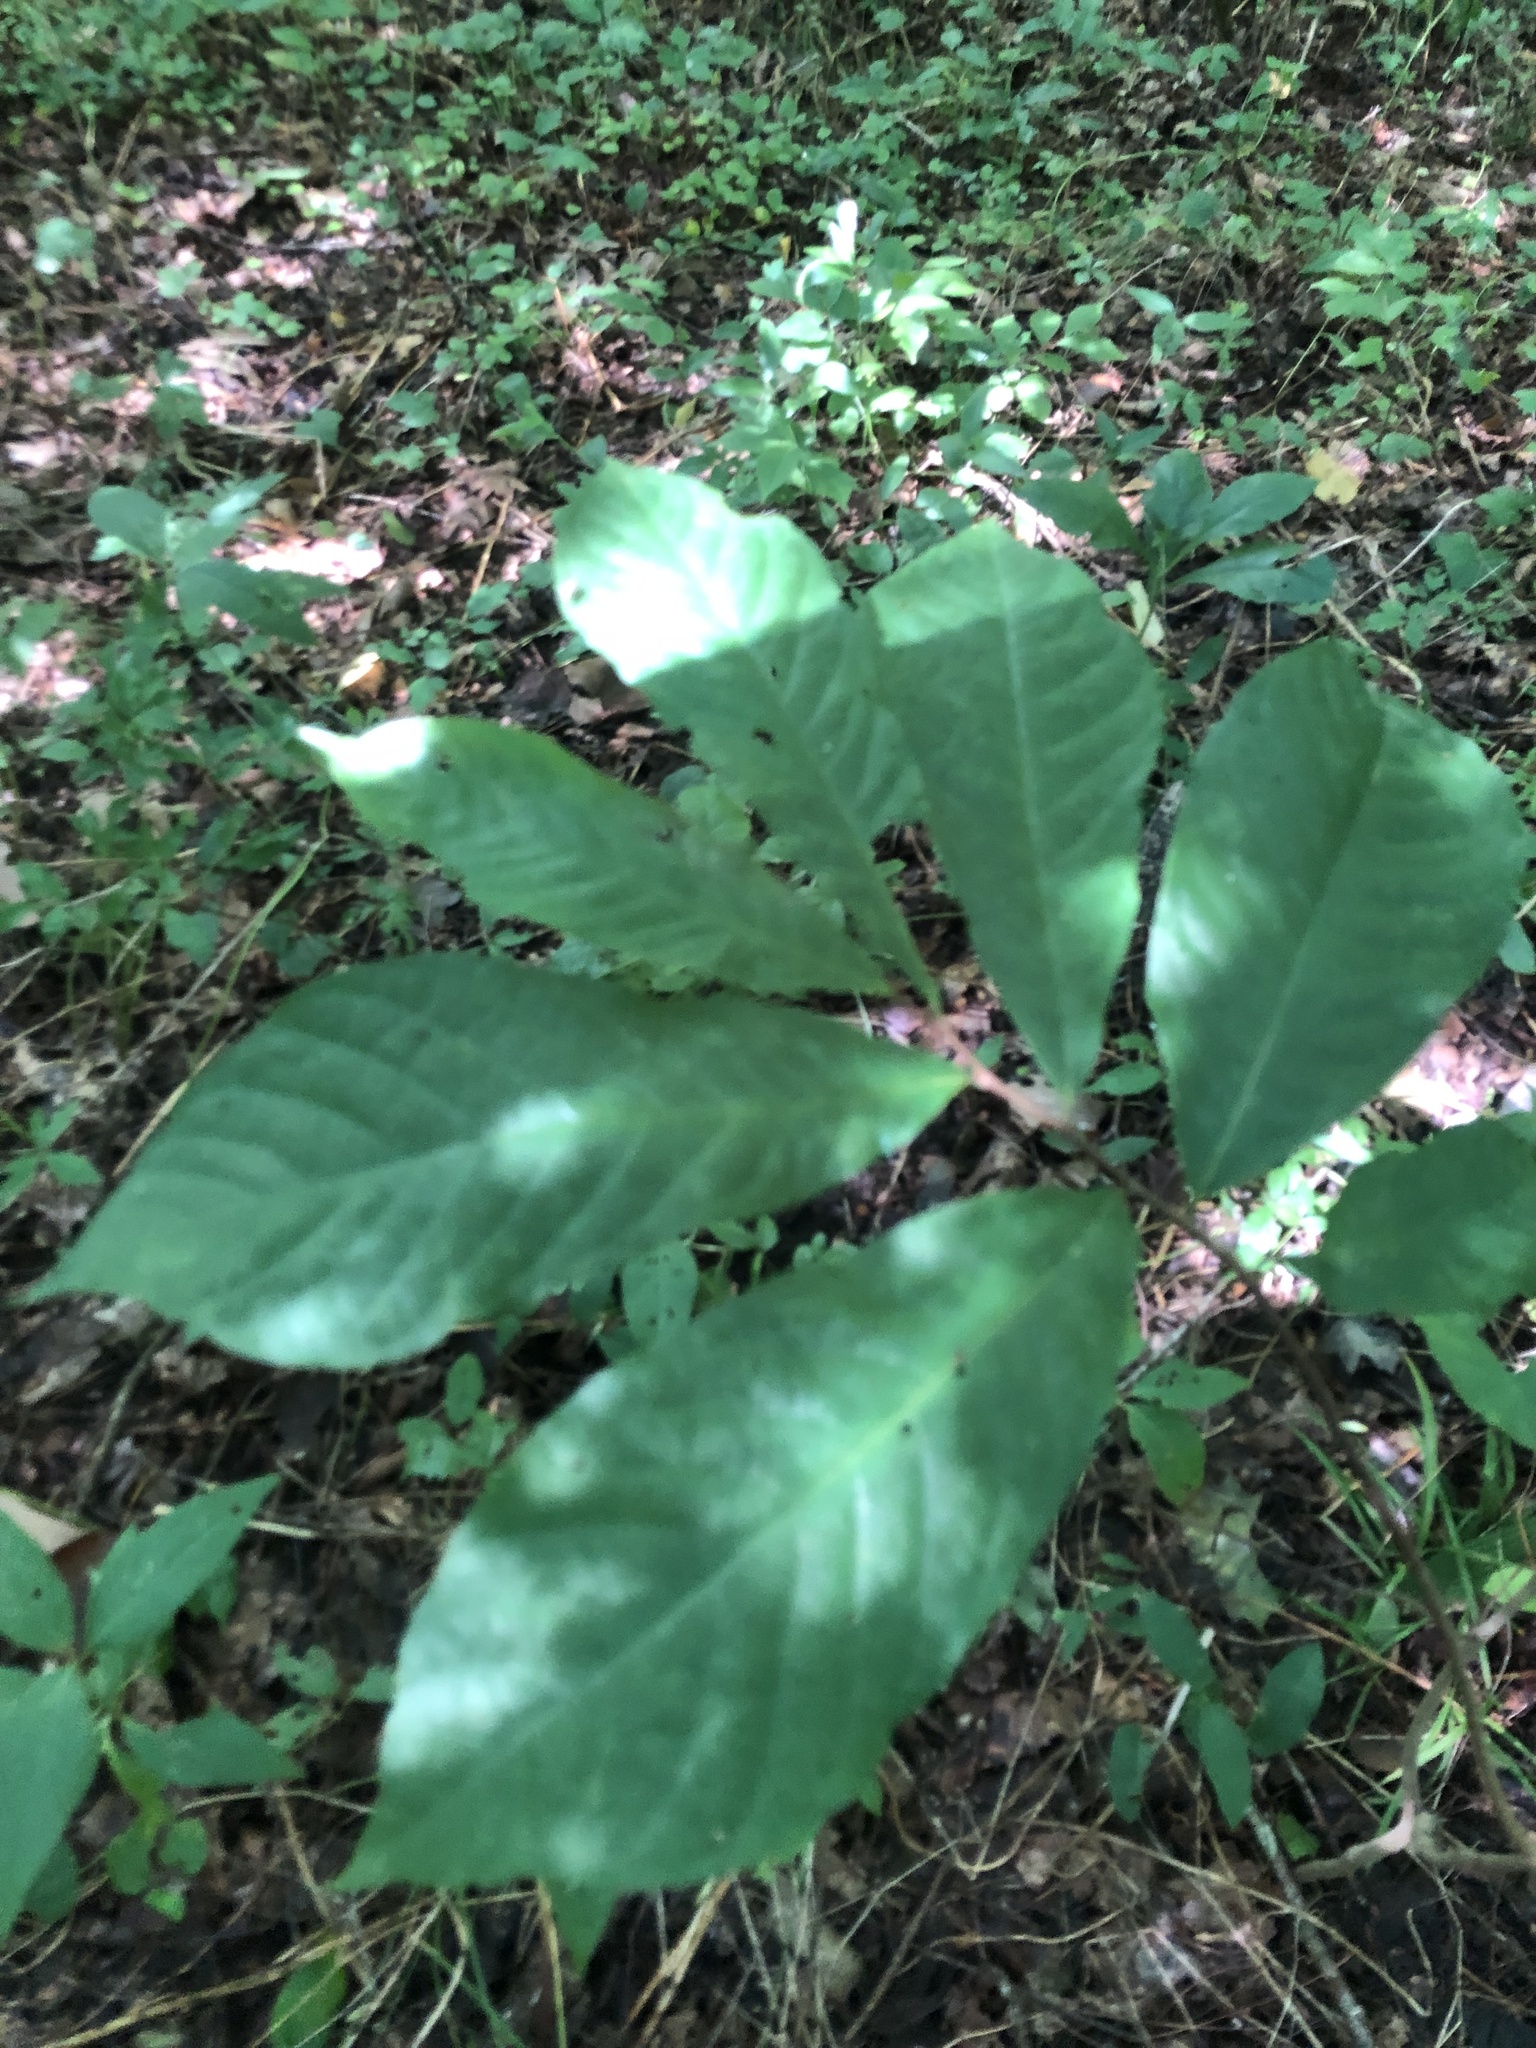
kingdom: Plantae
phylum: Tracheophyta
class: Magnoliopsida
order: Magnoliales
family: Annonaceae
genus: Asimina
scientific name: Asimina triloba
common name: Dog-banana
